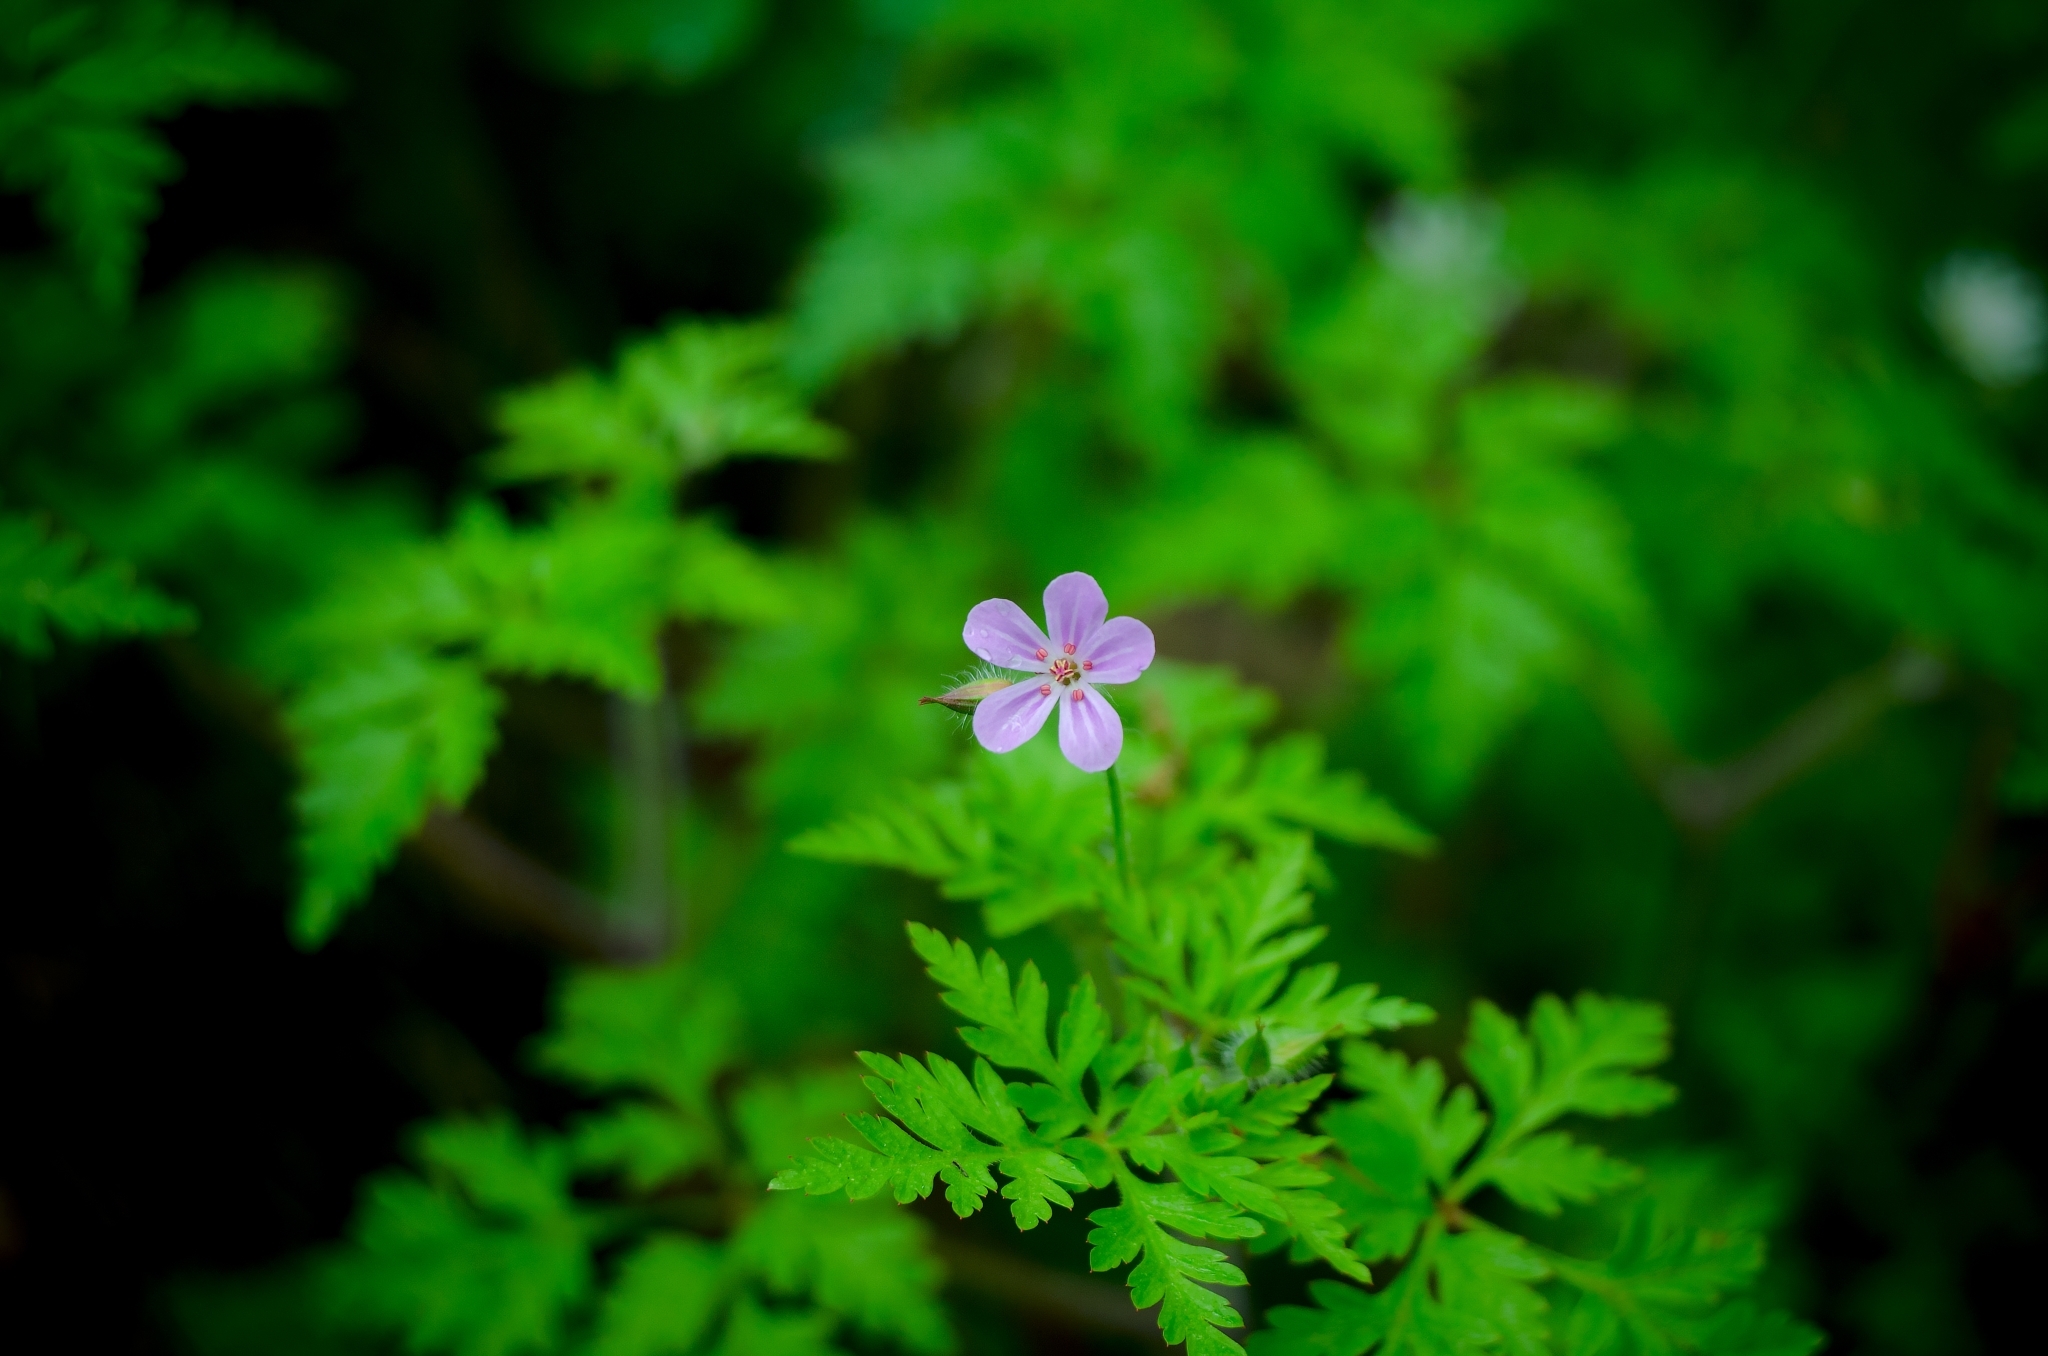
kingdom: Plantae
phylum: Tracheophyta
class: Magnoliopsida
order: Geraniales
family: Geraniaceae
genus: Geranium
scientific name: Geranium robertianum
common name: Herb-robert
